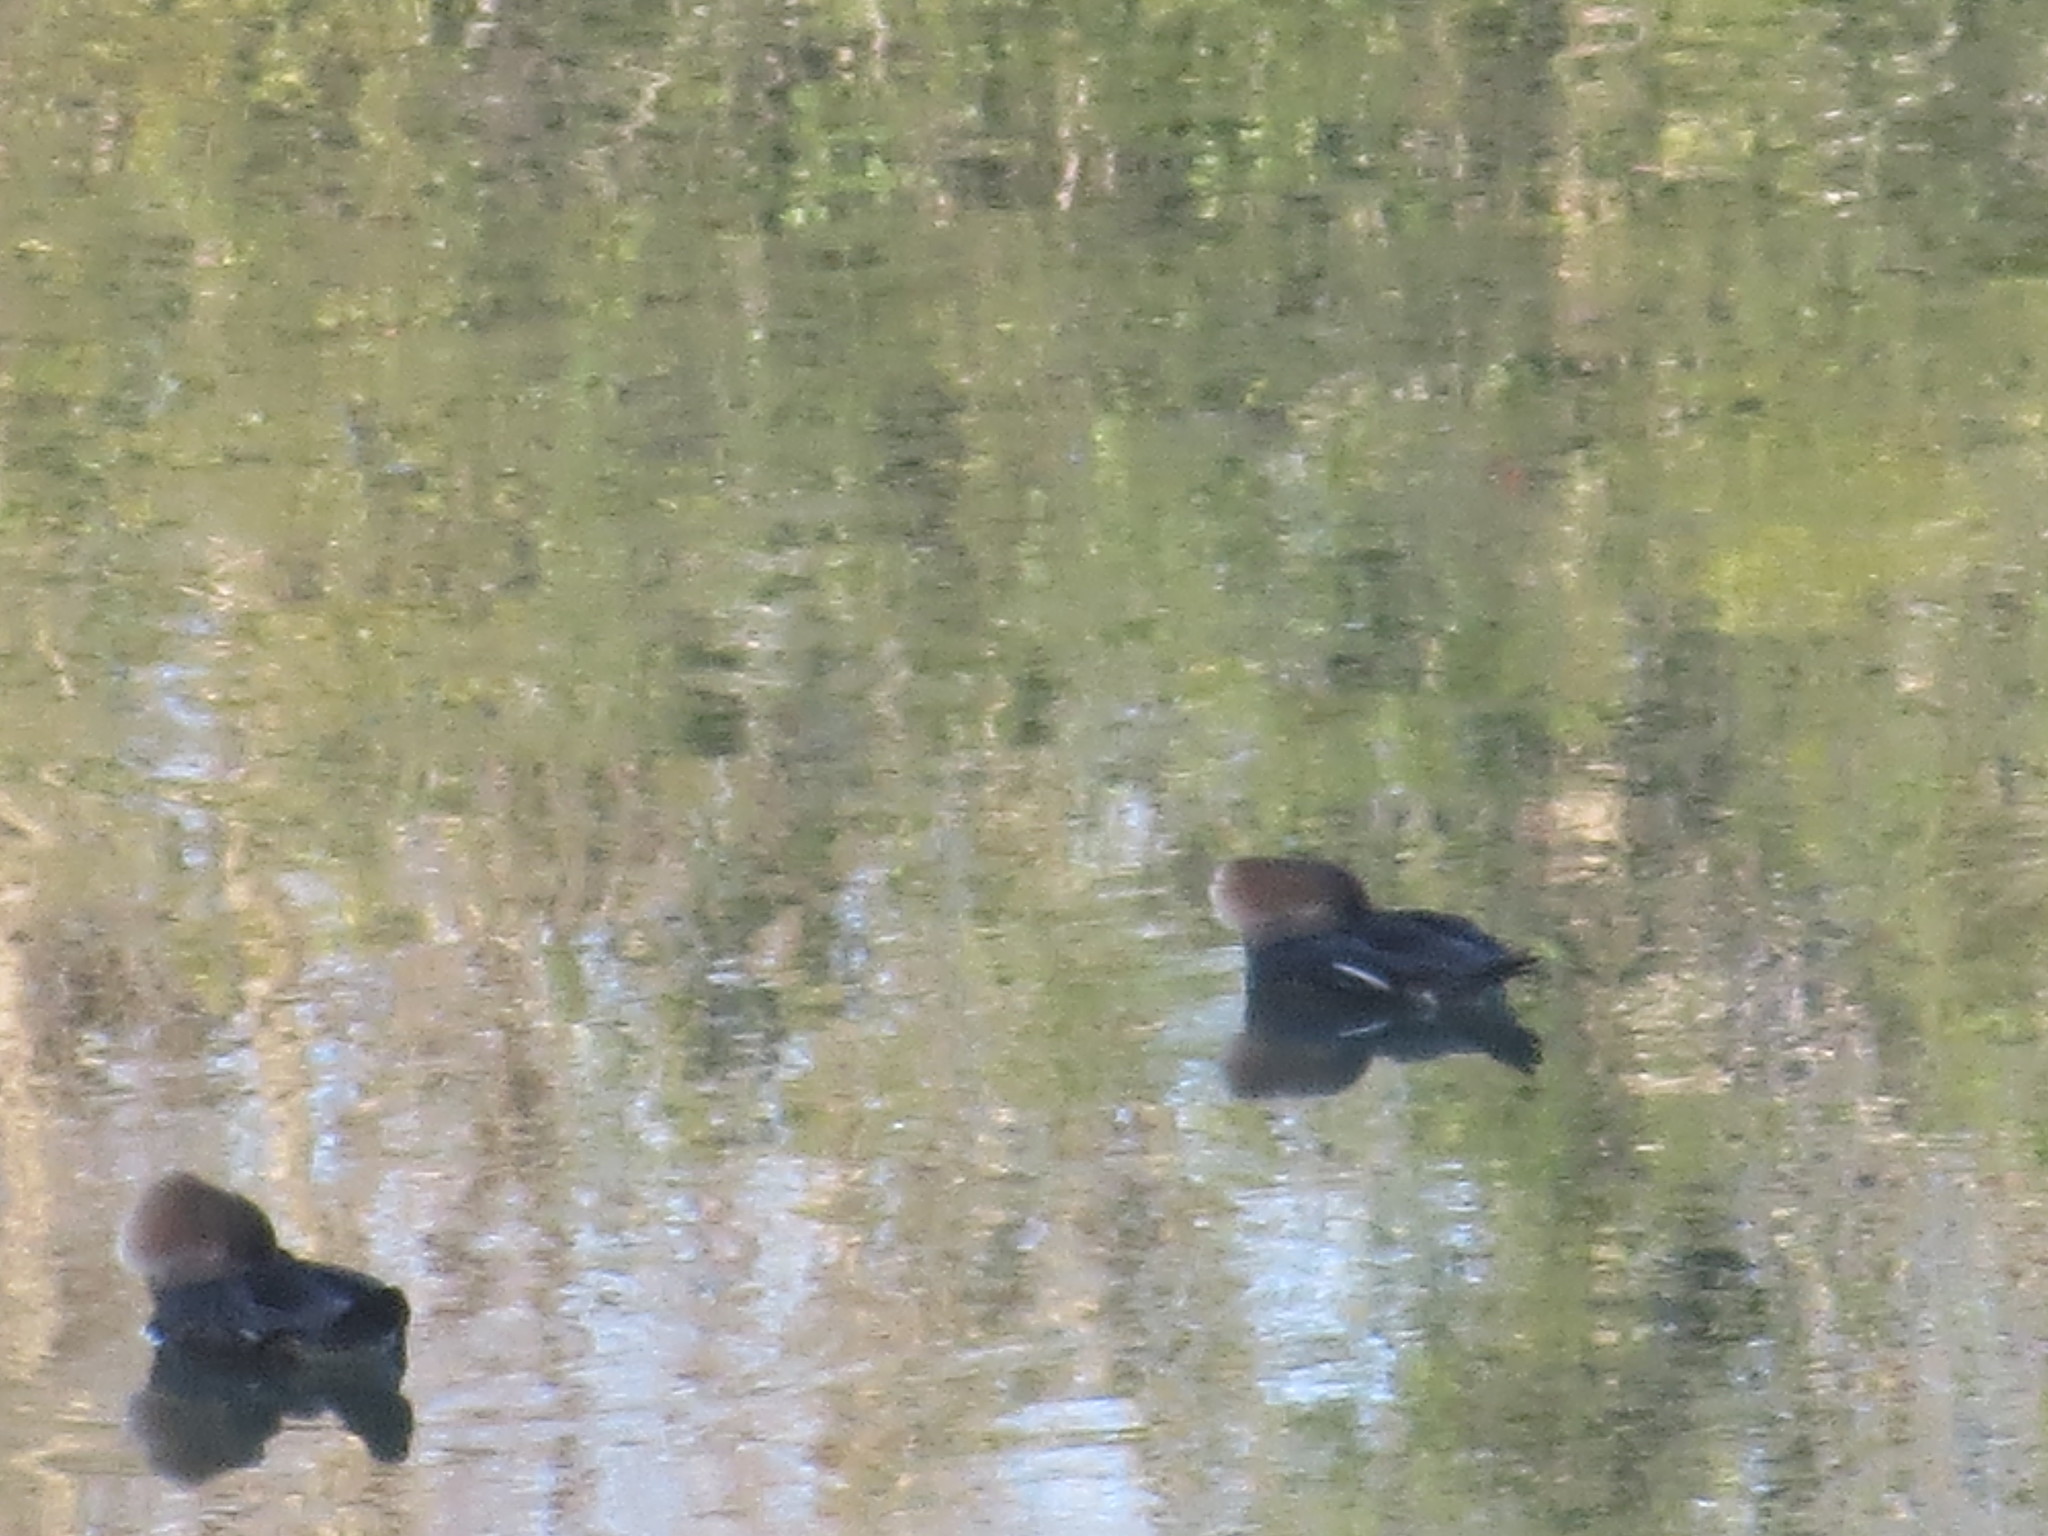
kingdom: Animalia
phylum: Chordata
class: Aves
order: Anseriformes
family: Anatidae
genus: Lophodytes
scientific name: Lophodytes cucullatus
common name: Hooded merganser
